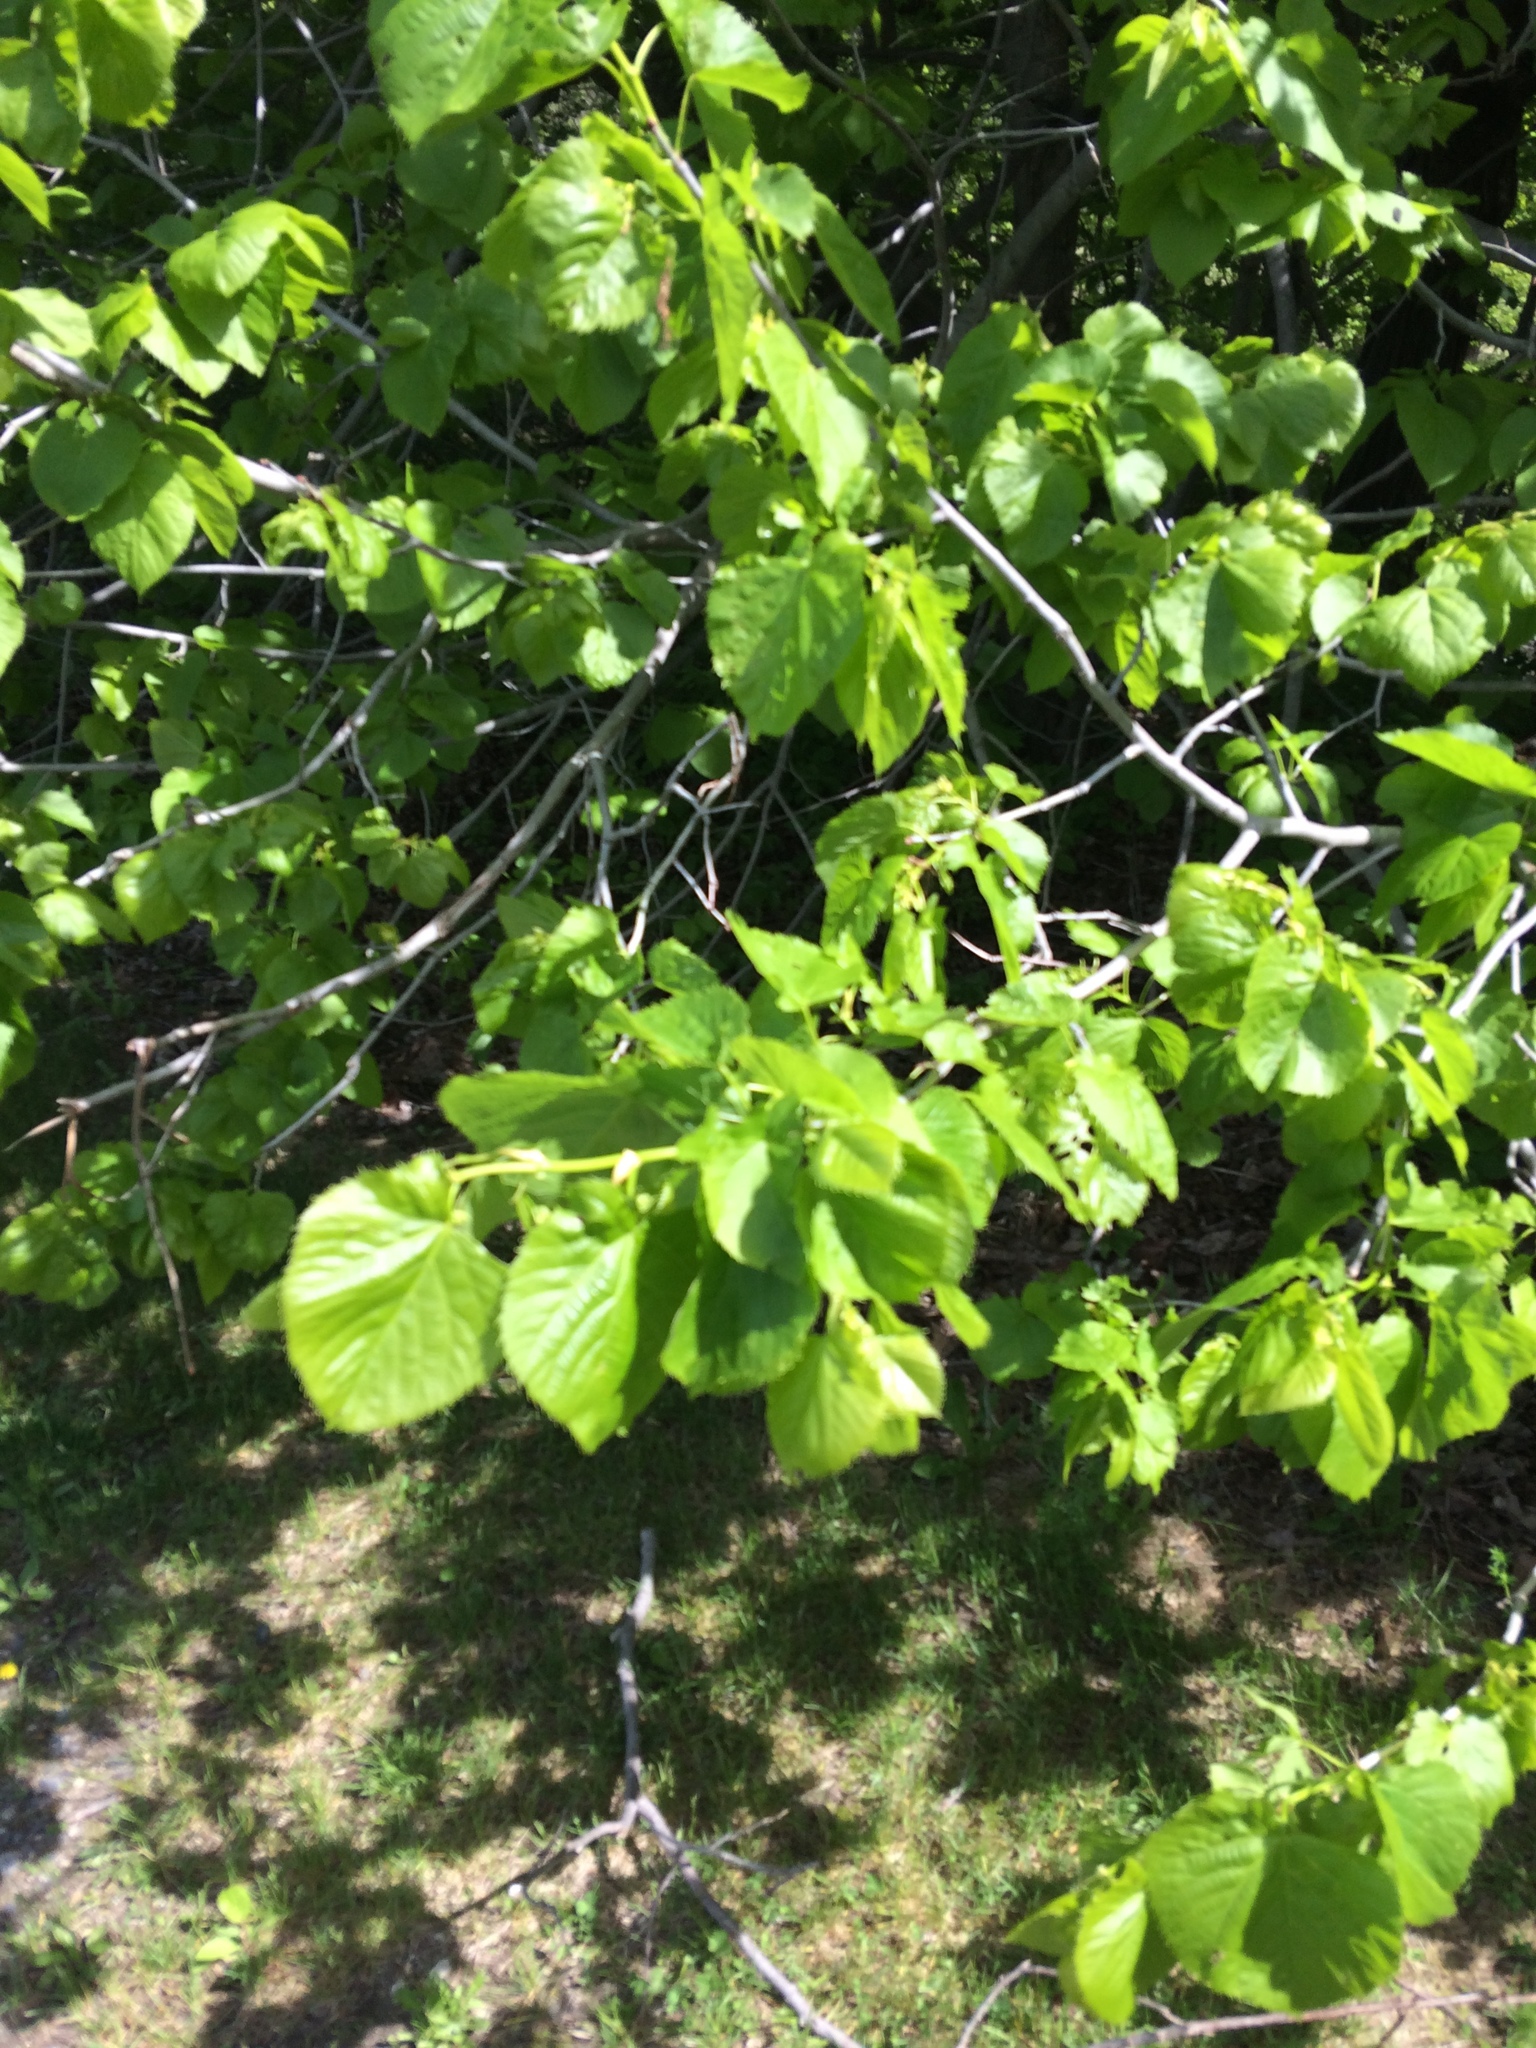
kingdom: Plantae
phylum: Tracheophyta
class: Magnoliopsida
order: Malvales
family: Malvaceae
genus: Tilia
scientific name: Tilia americana
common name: Basswood
